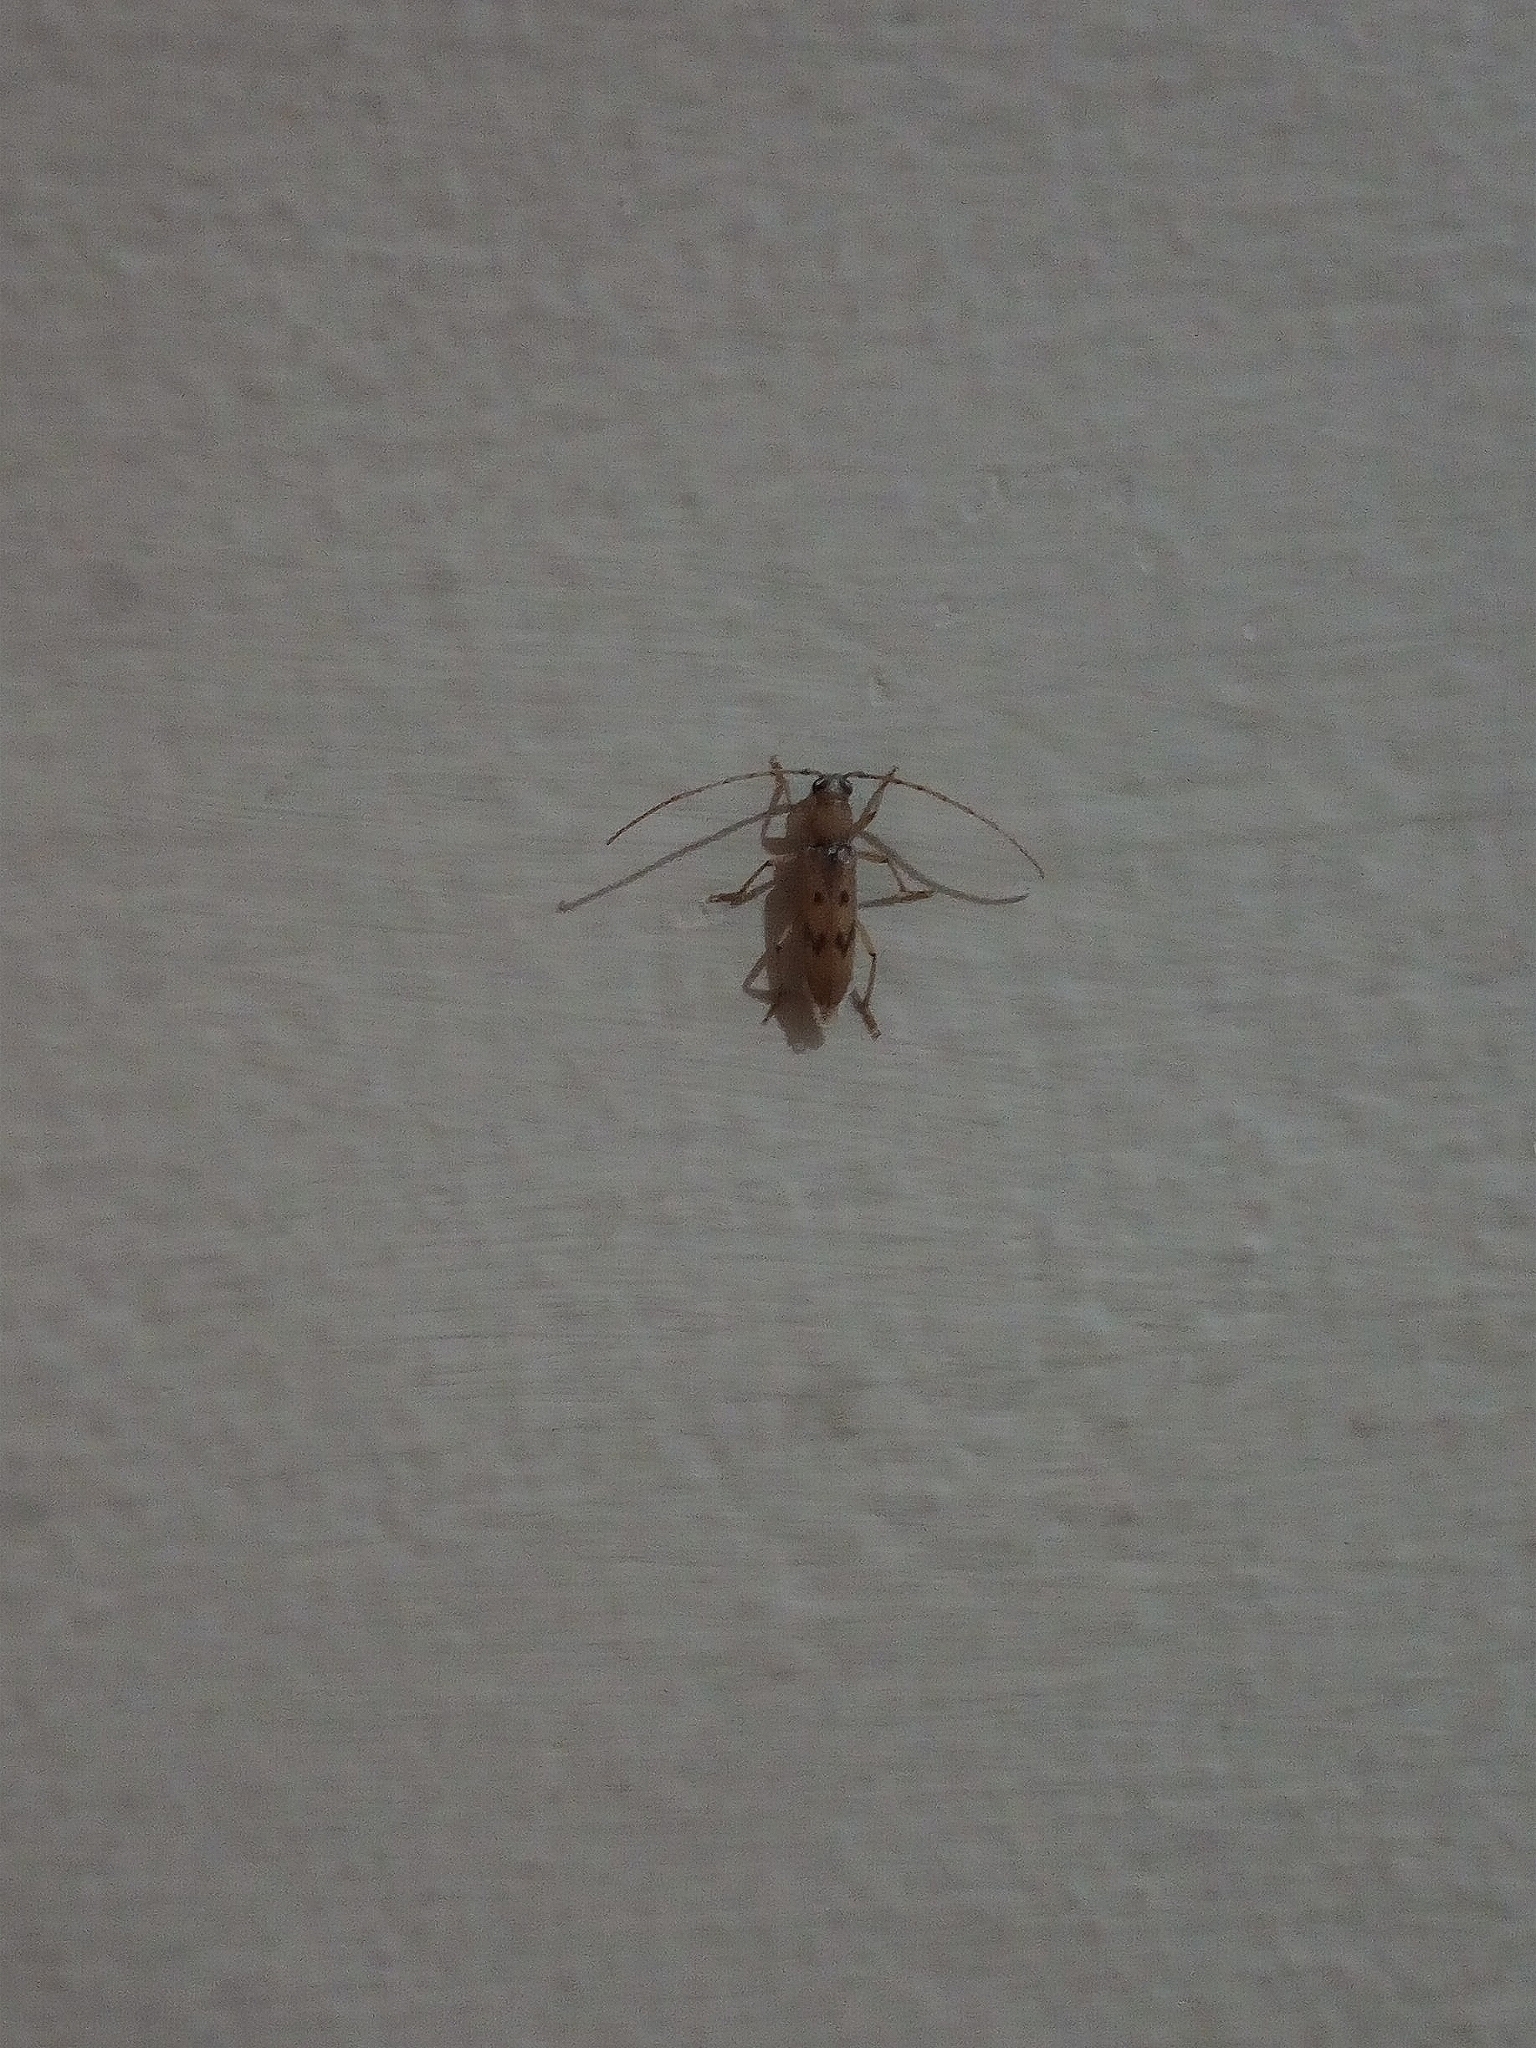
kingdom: Animalia
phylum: Arthropoda
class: Insecta
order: Coleoptera
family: Cerambycidae
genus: Achryson
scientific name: Achryson surinamum
